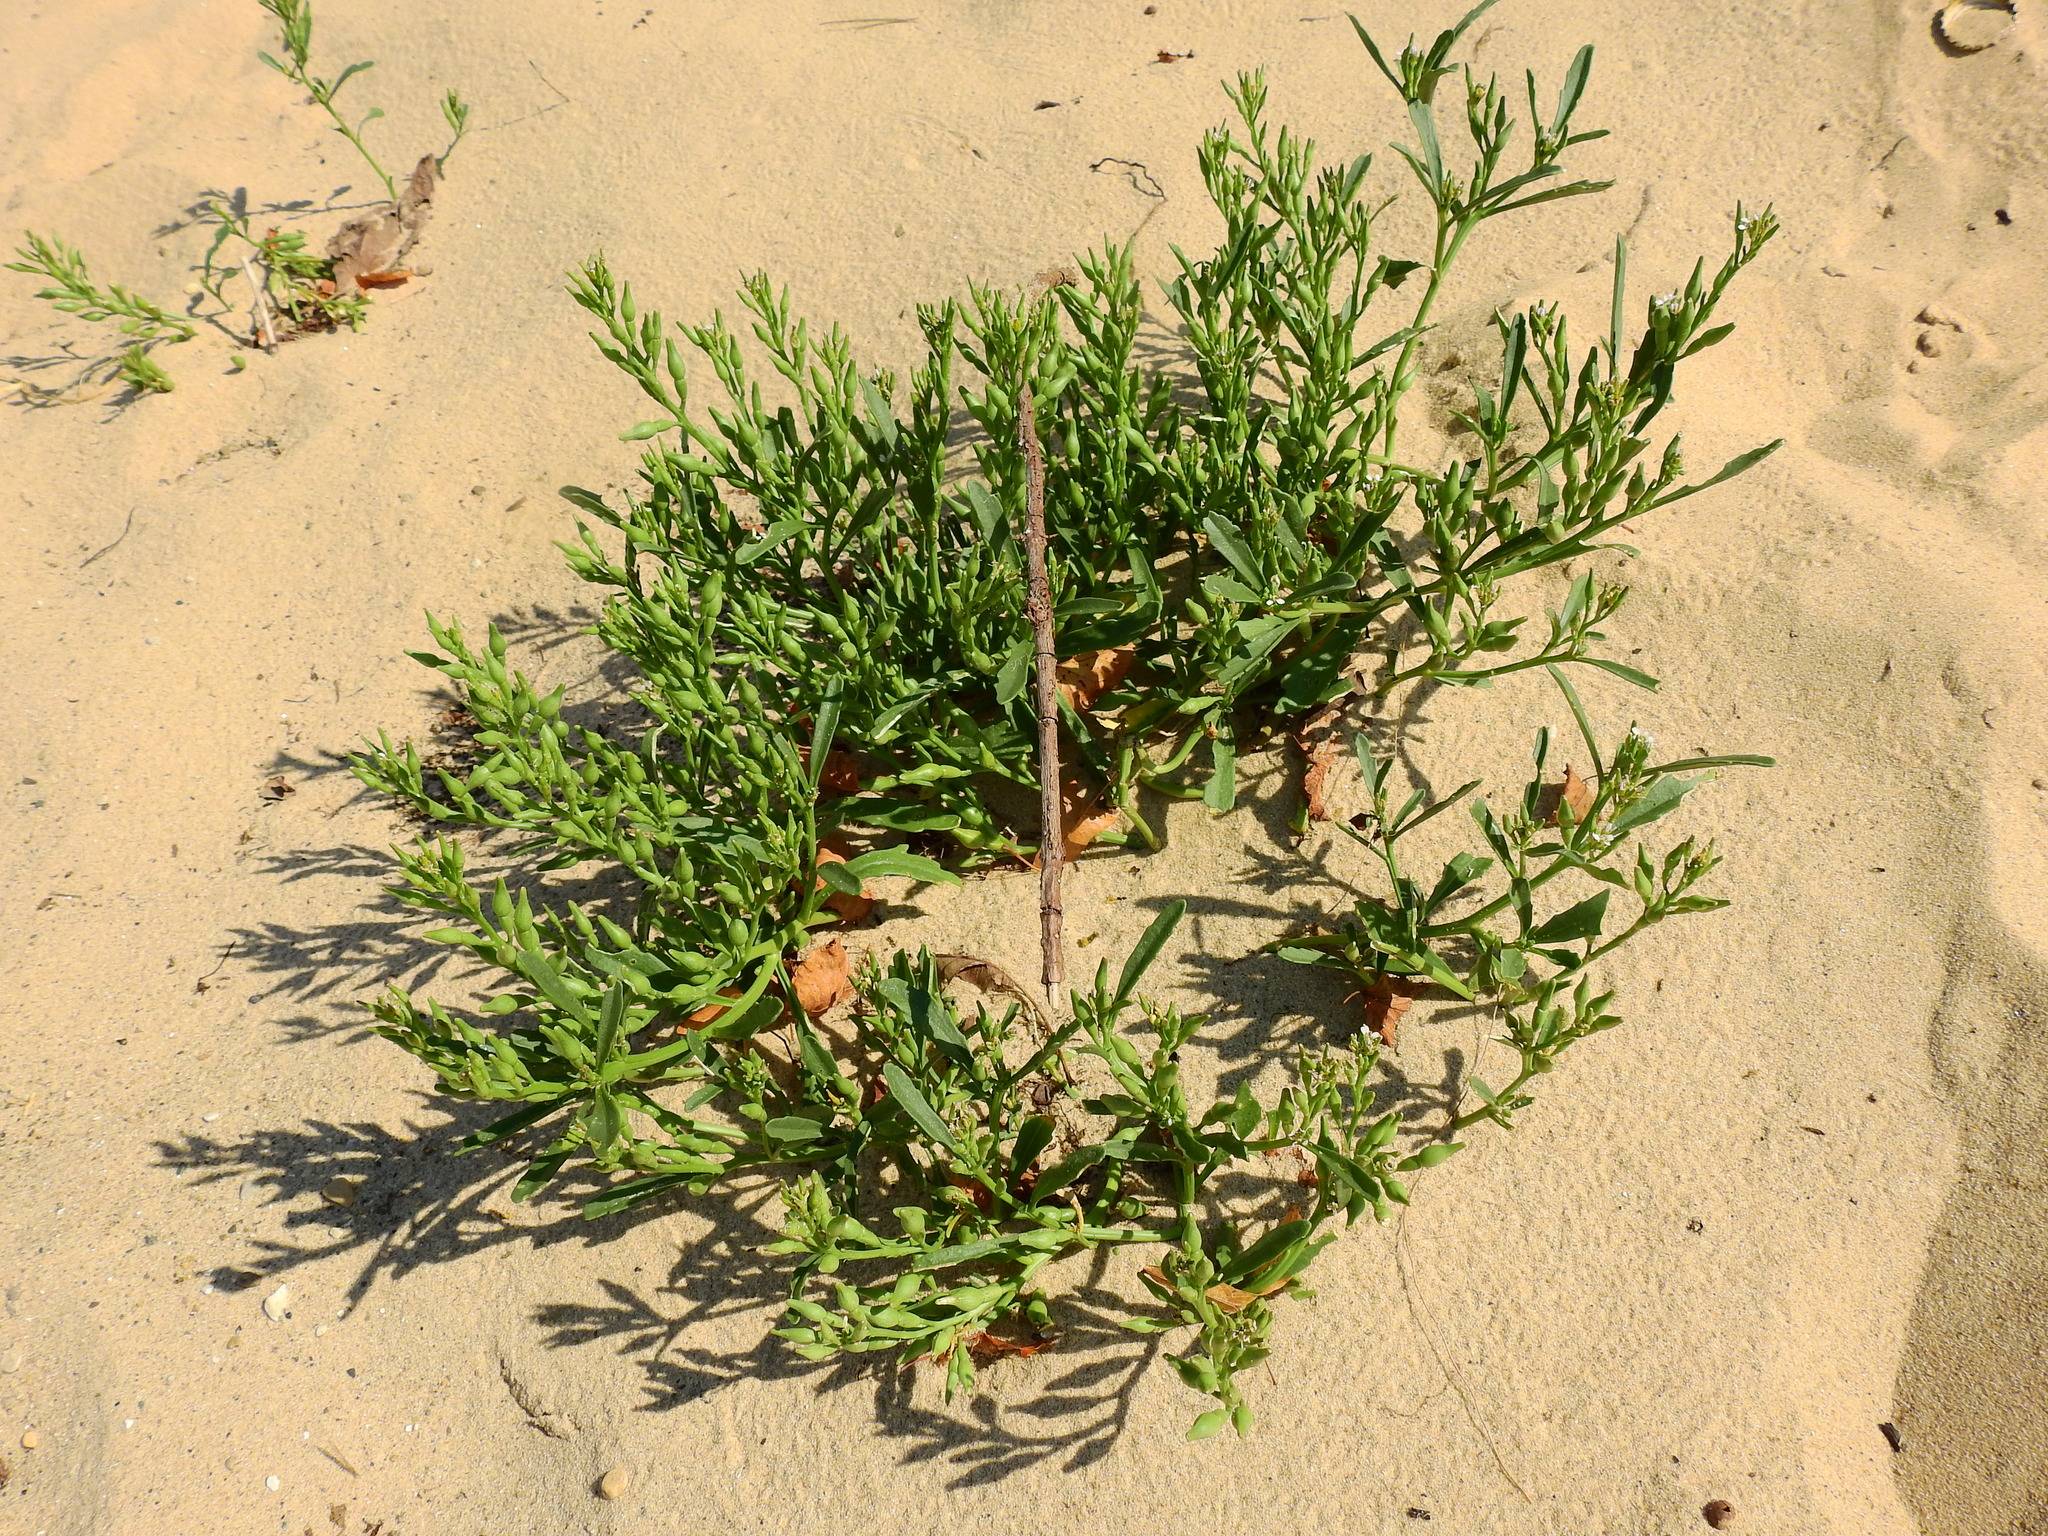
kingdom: Plantae
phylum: Tracheophyta
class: Magnoliopsida
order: Brassicales
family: Brassicaceae
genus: Cakile
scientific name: Cakile edentula
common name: American sea rocket
